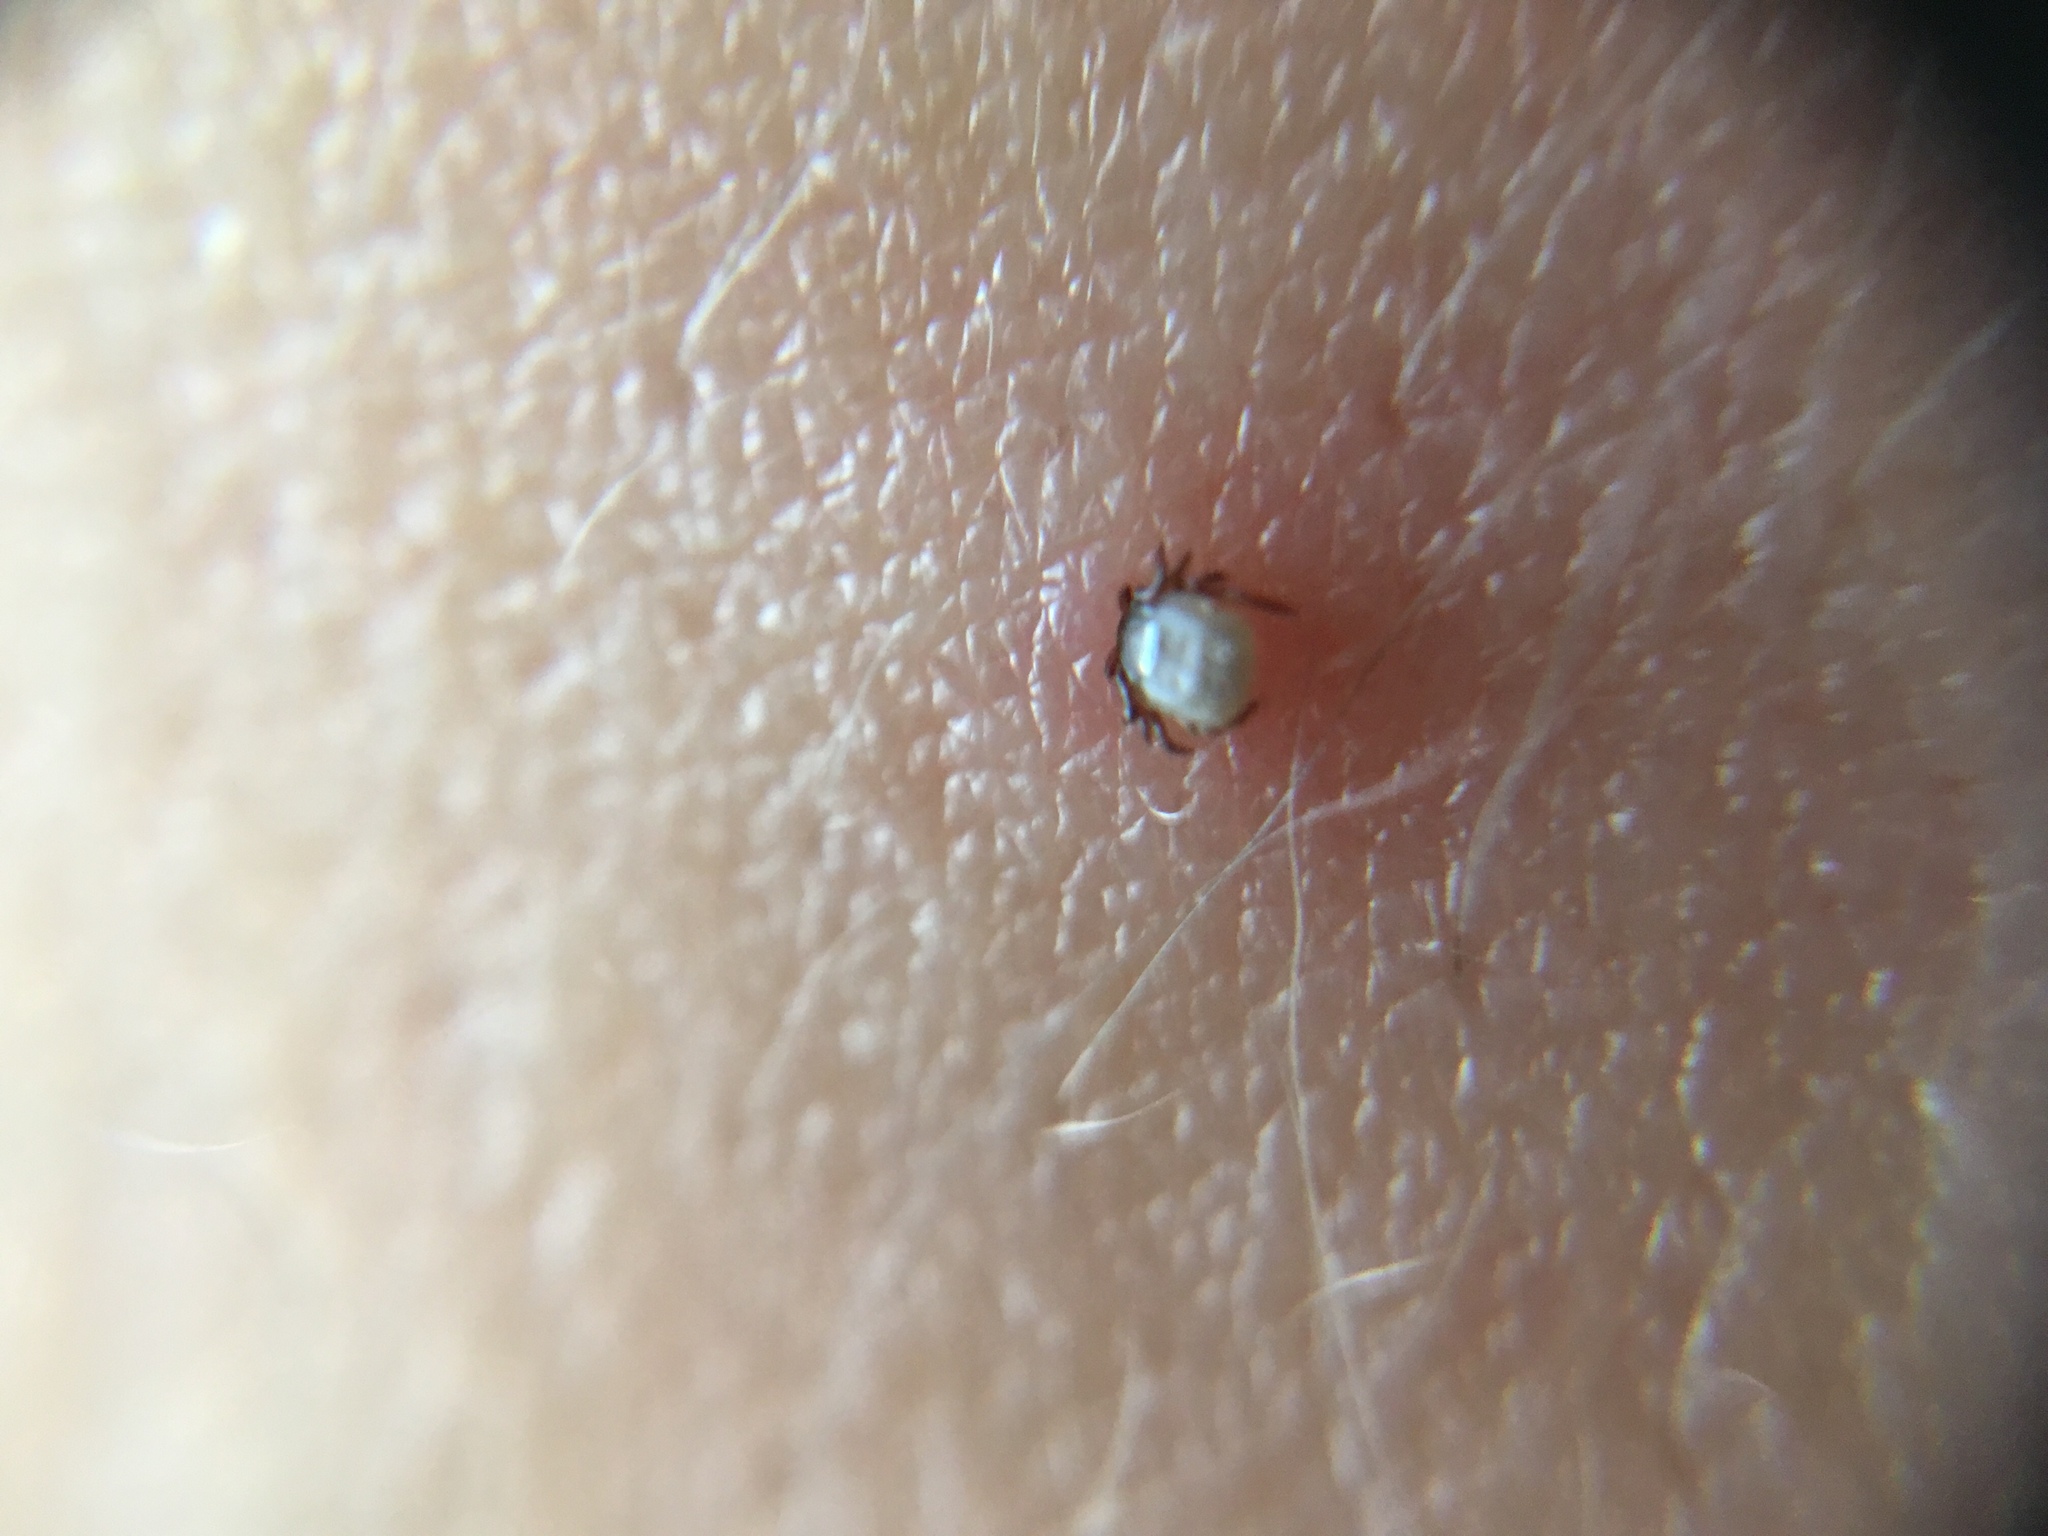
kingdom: Animalia
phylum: Arthropoda
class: Arachnida
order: Ixodida
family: Ixodidae
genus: Ixodes
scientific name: Ixodes ricinus
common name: Castor bean tick
